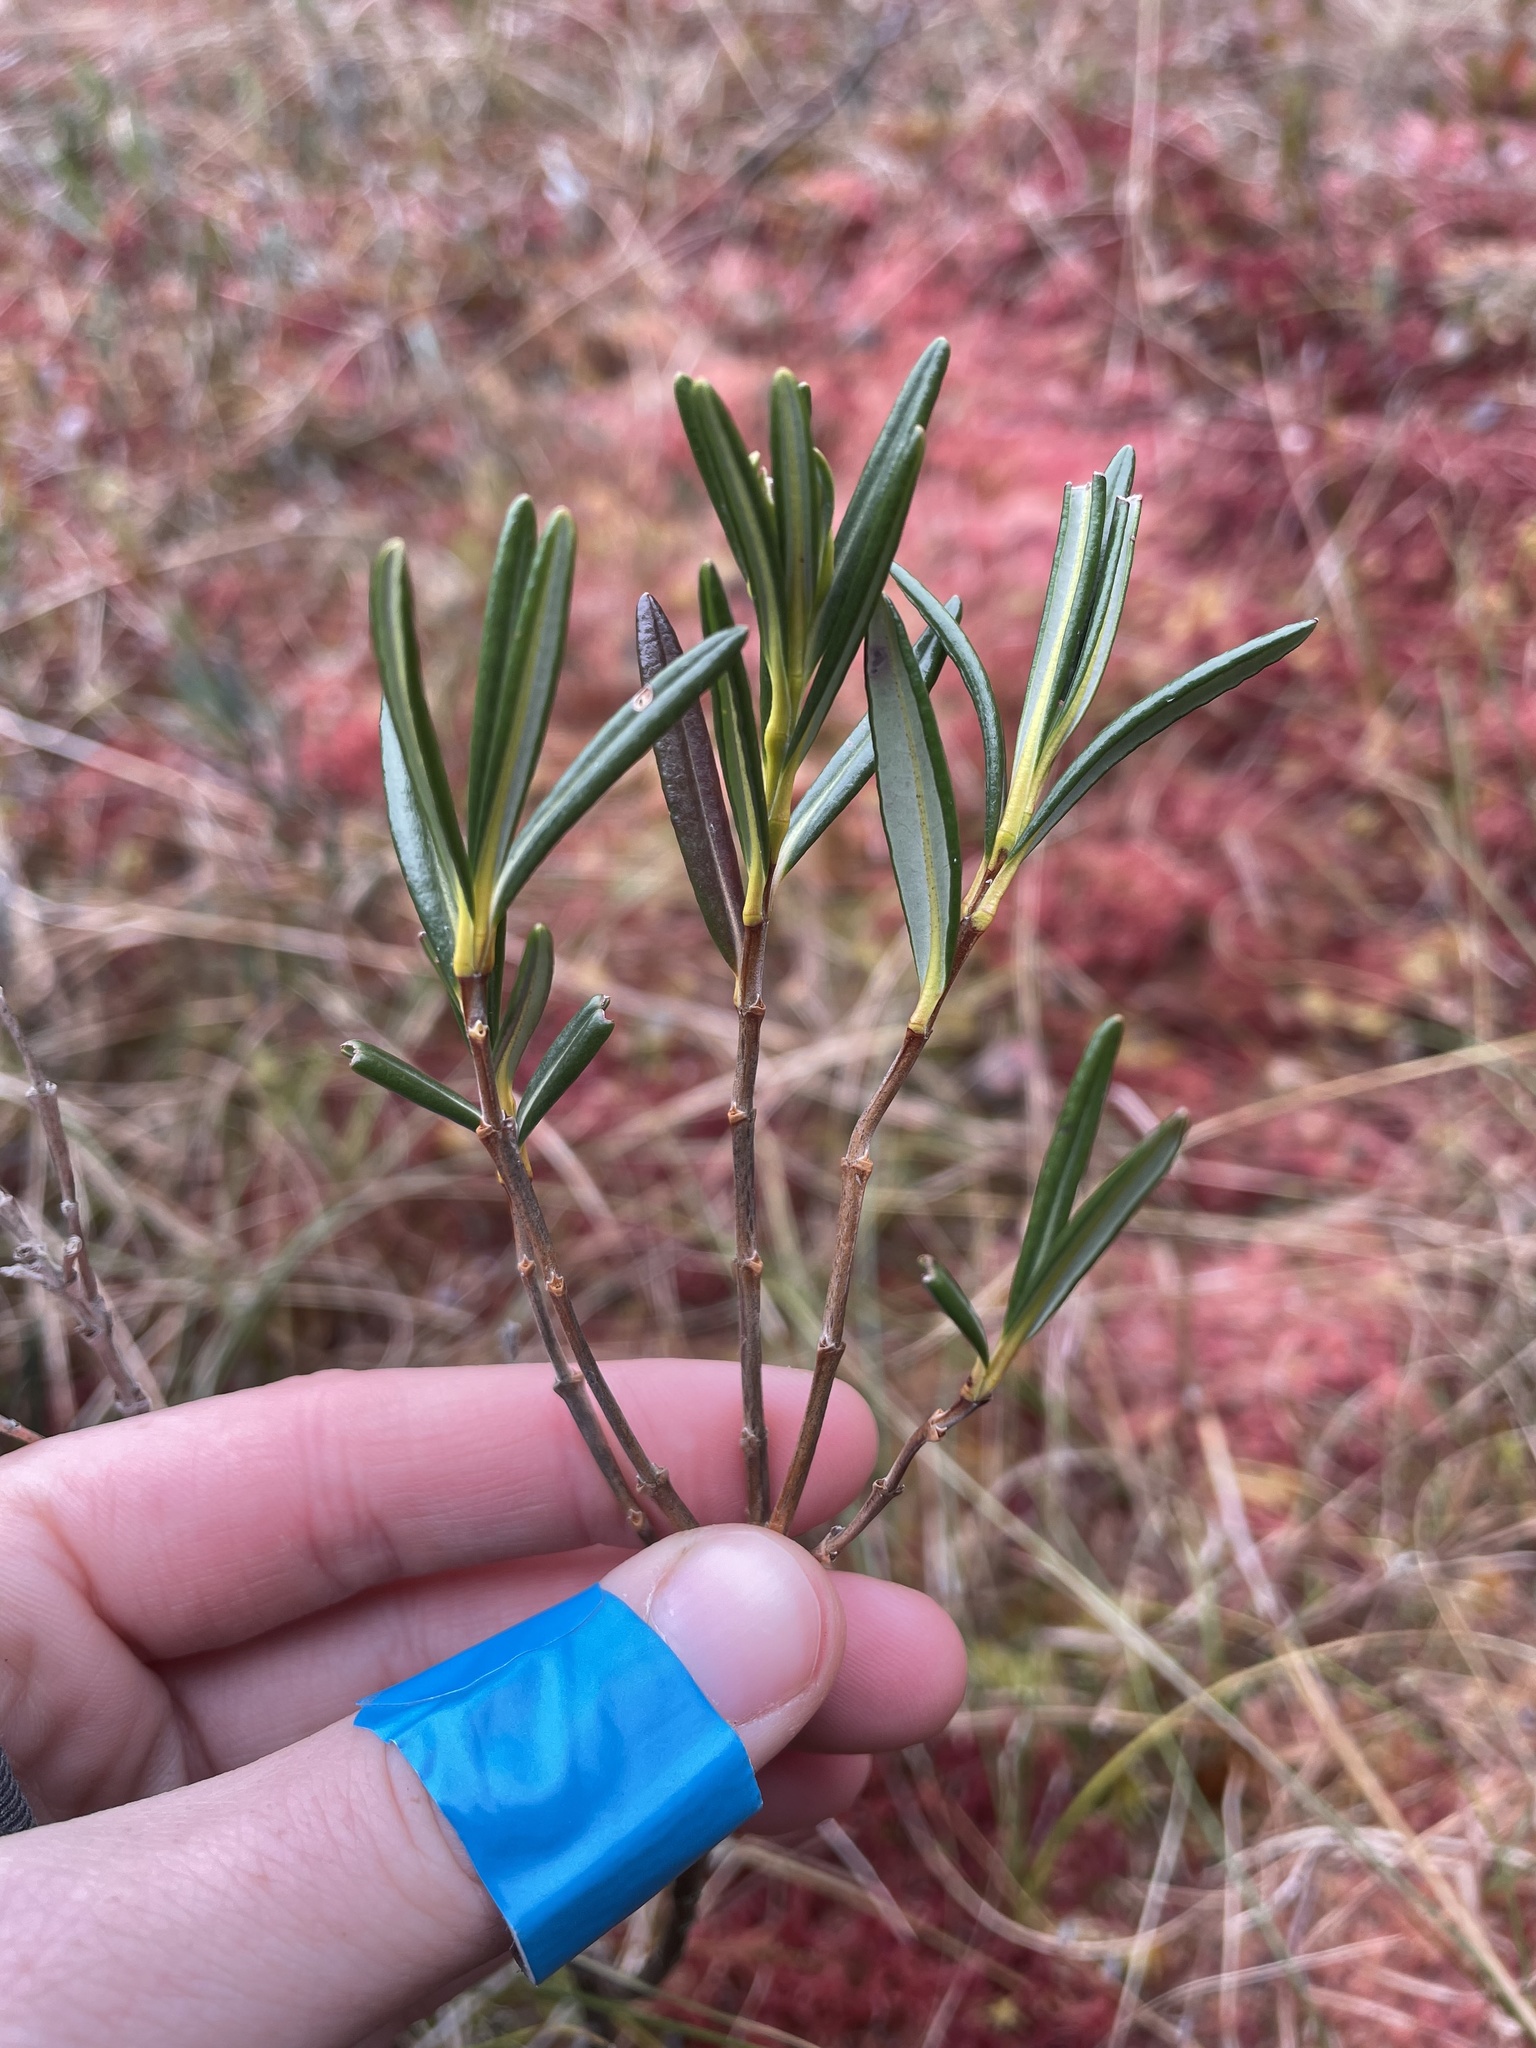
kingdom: Plantae
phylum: Tracheophyta
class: Magnoliopsida
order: Ericales
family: Ericaceae
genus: Andromeda
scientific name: Andromeda polifolia
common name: Bog-rosemary
